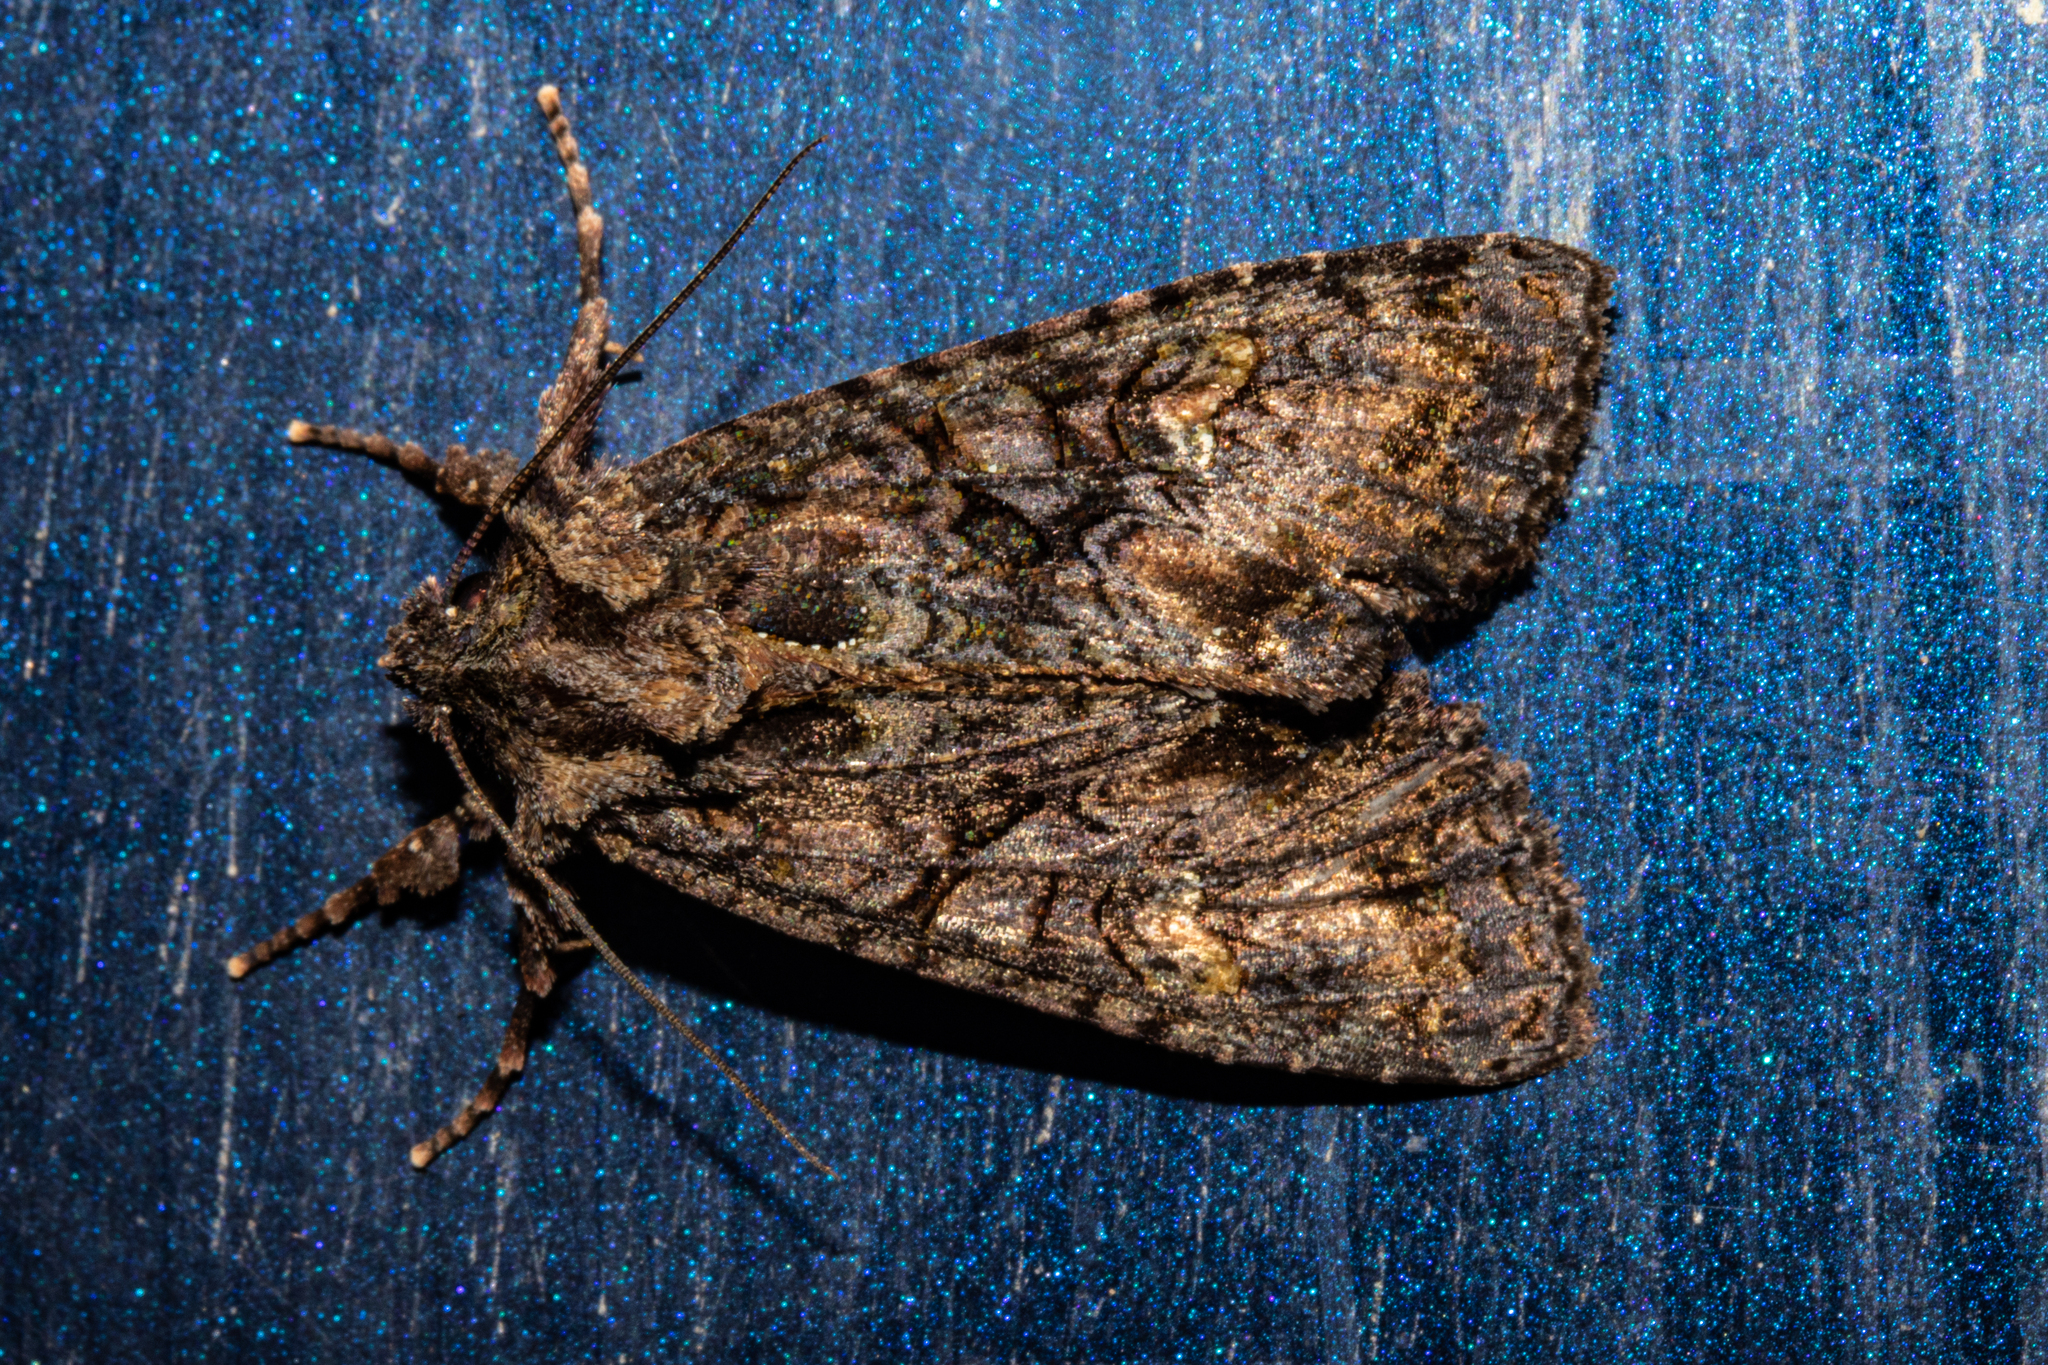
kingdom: Animalia
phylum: Arthropoda
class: Insecta
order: Lepidoptera
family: Noctuidae
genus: Meterana
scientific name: Meterana dotata
